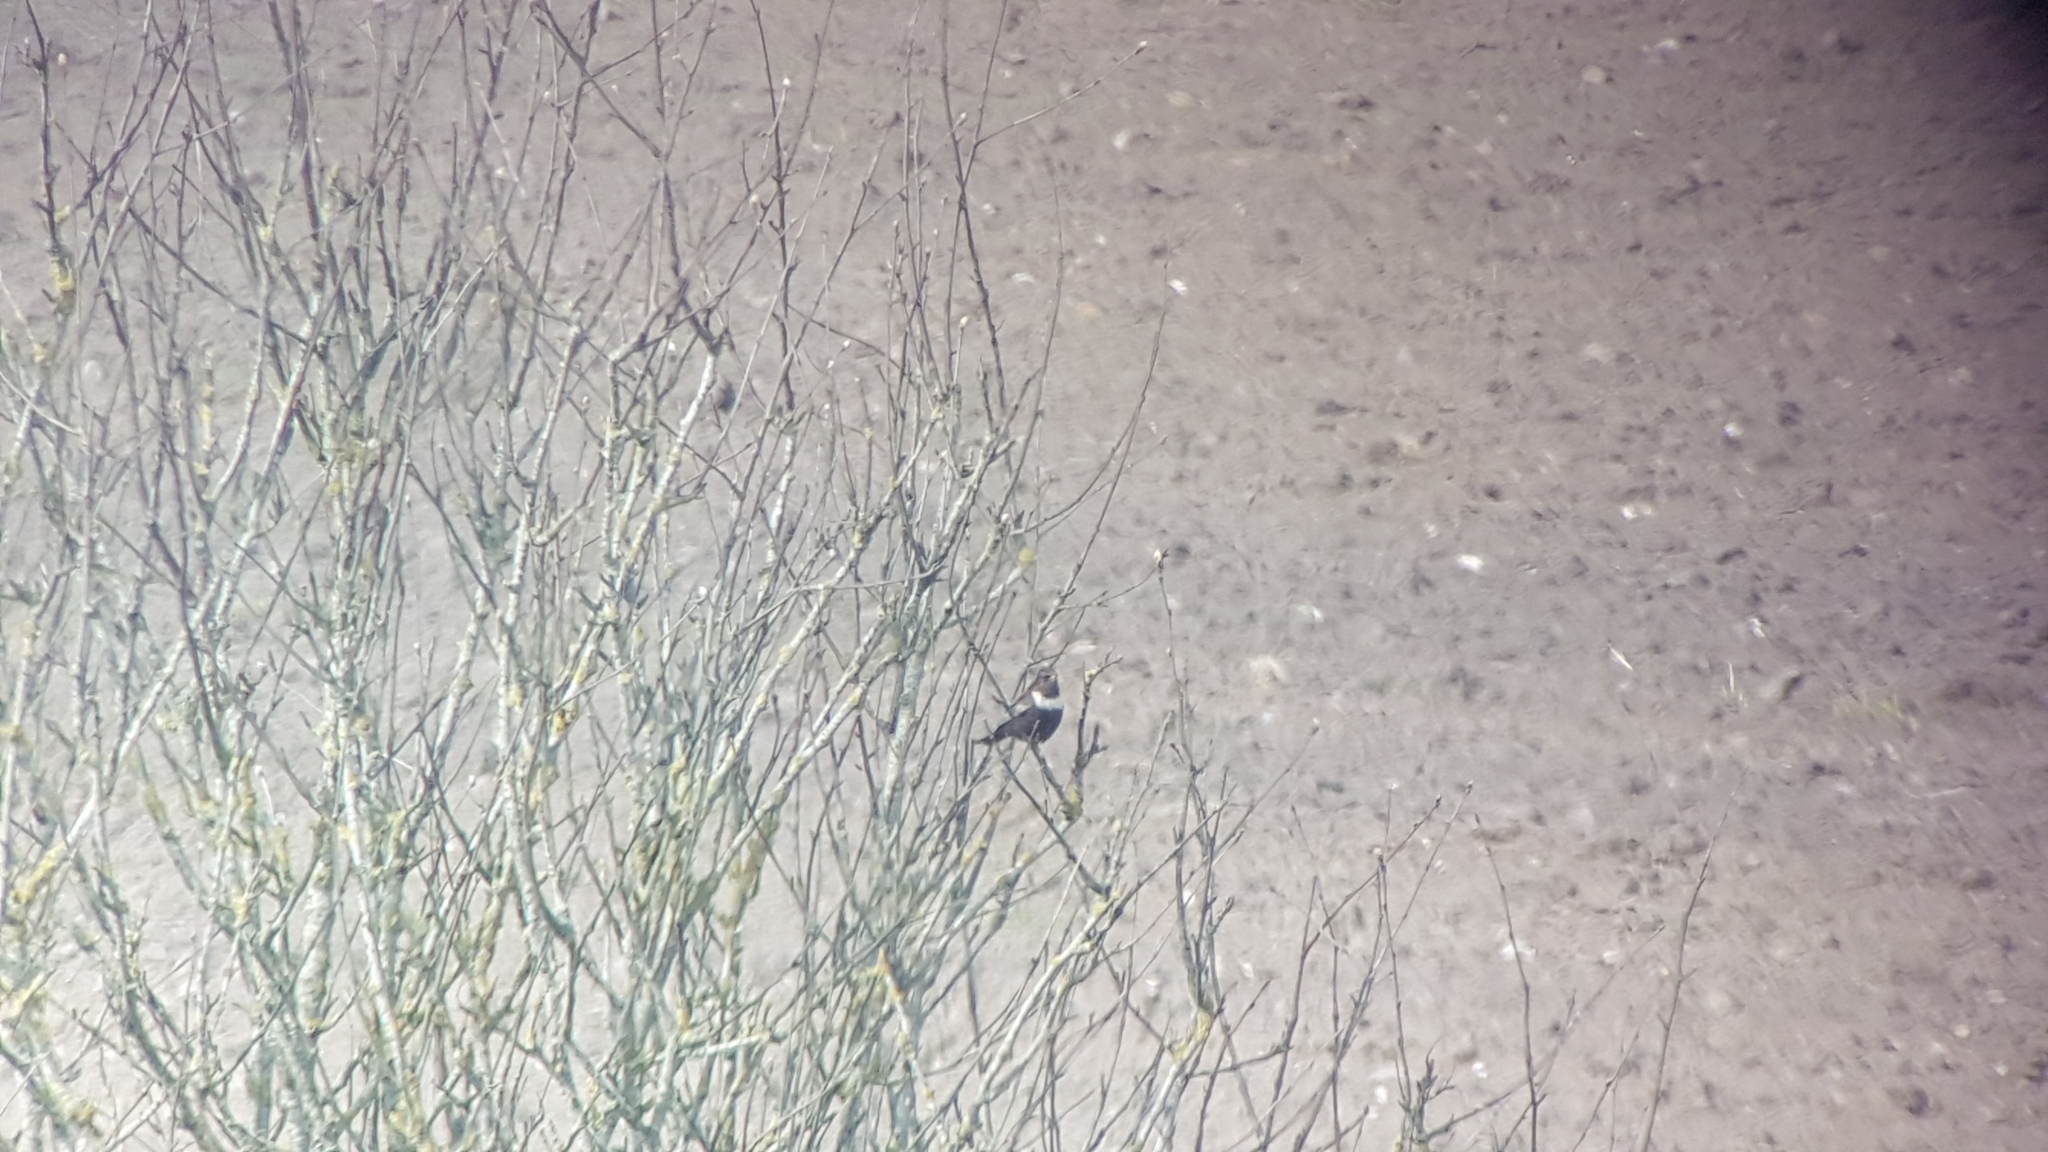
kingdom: Animalia
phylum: Chordata
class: Aves
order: Passeriformes
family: Turdidae
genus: Turdus
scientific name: Turdus torquatus
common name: Ring ouzel
